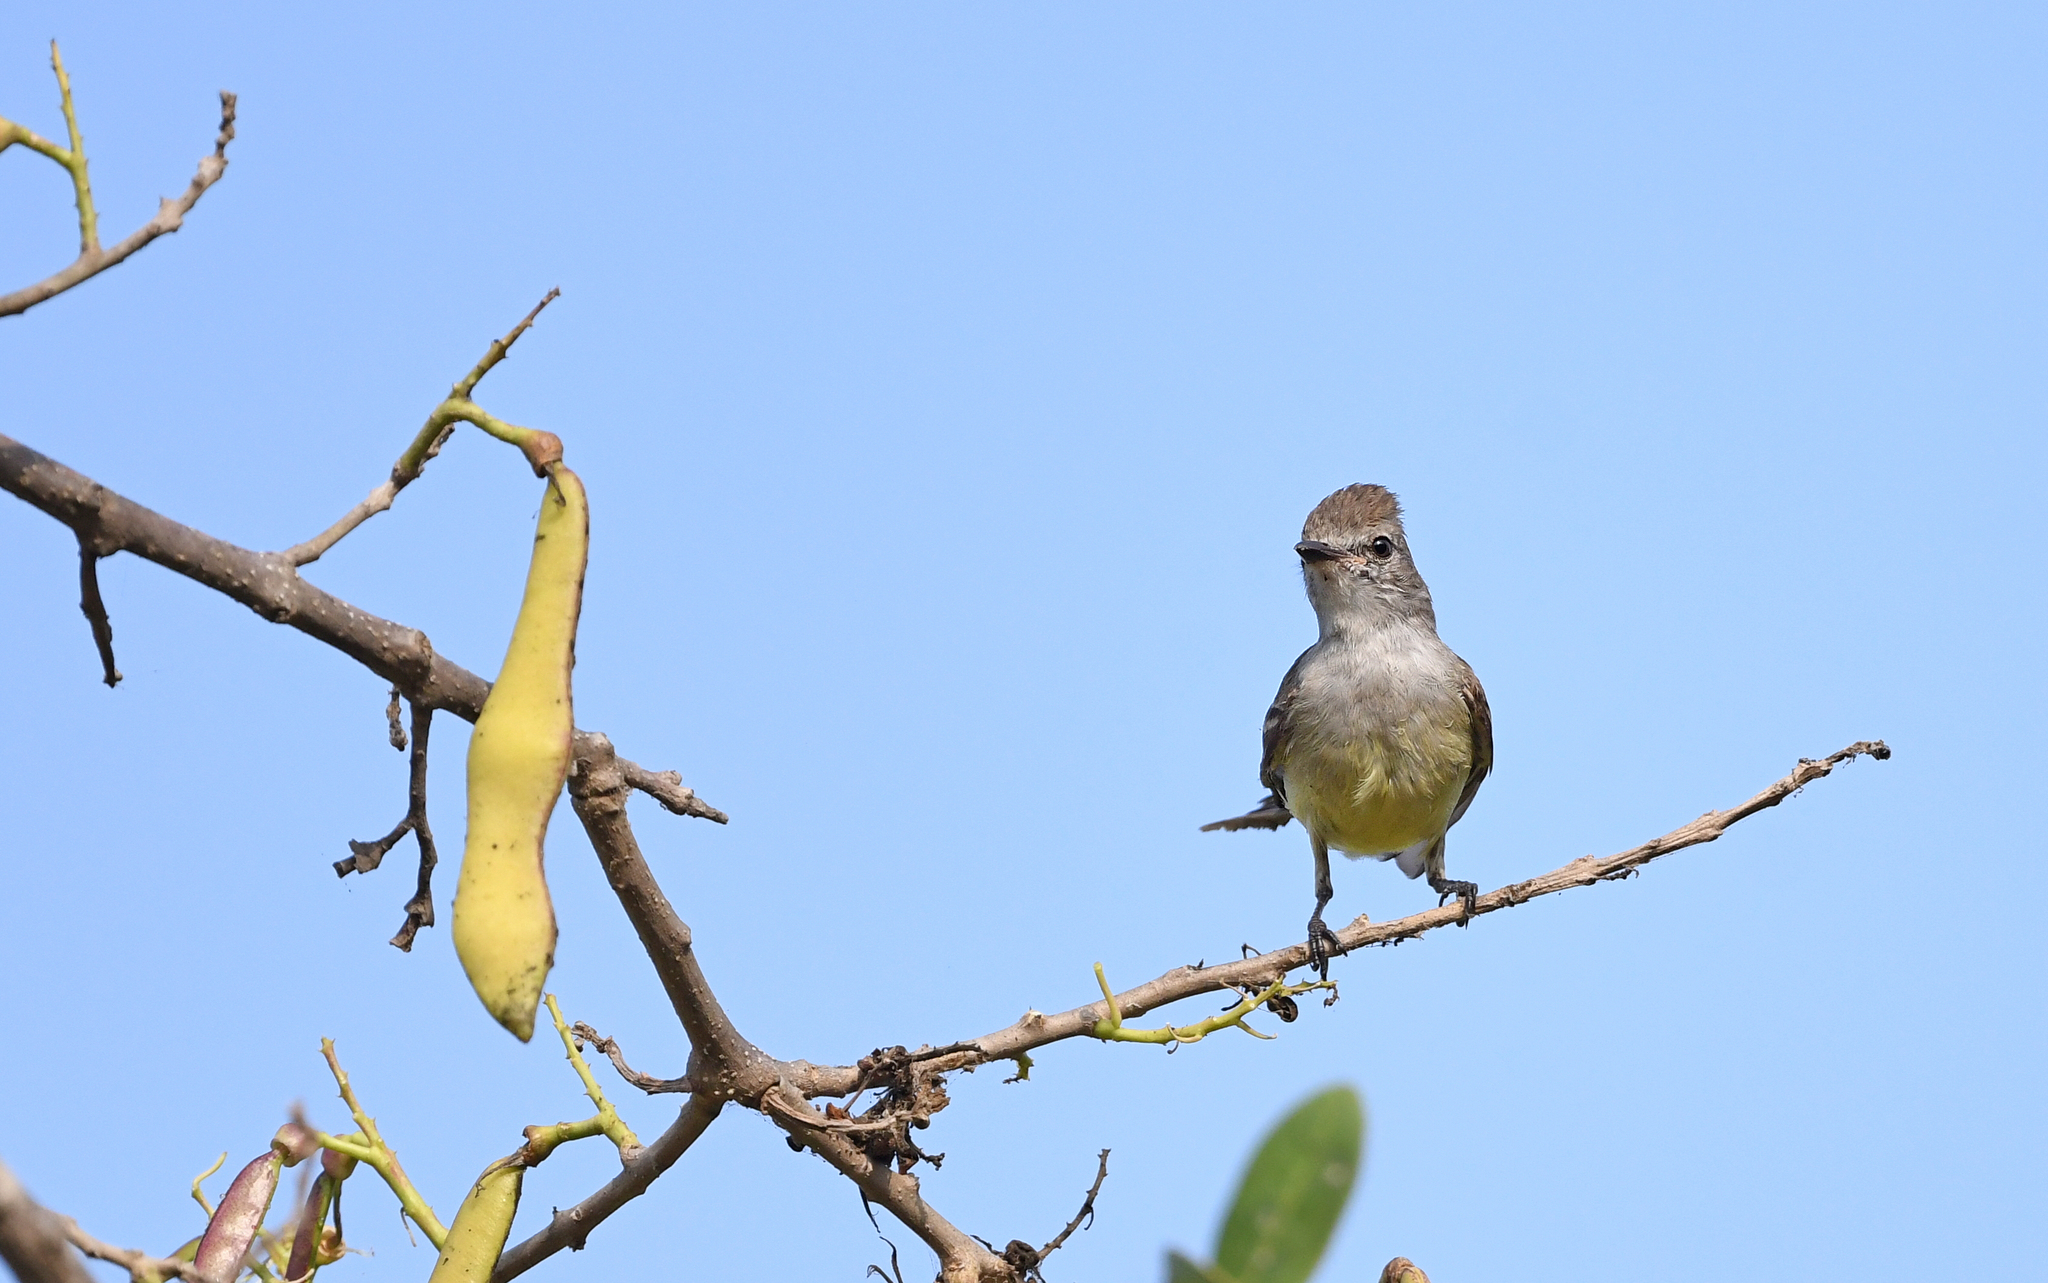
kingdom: Animalia
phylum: Chordata
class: Aves
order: Passeriformes
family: Tyrannidae
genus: Sublegatus
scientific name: Sublegatus arenarum
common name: Northern scrub-flycatcher
